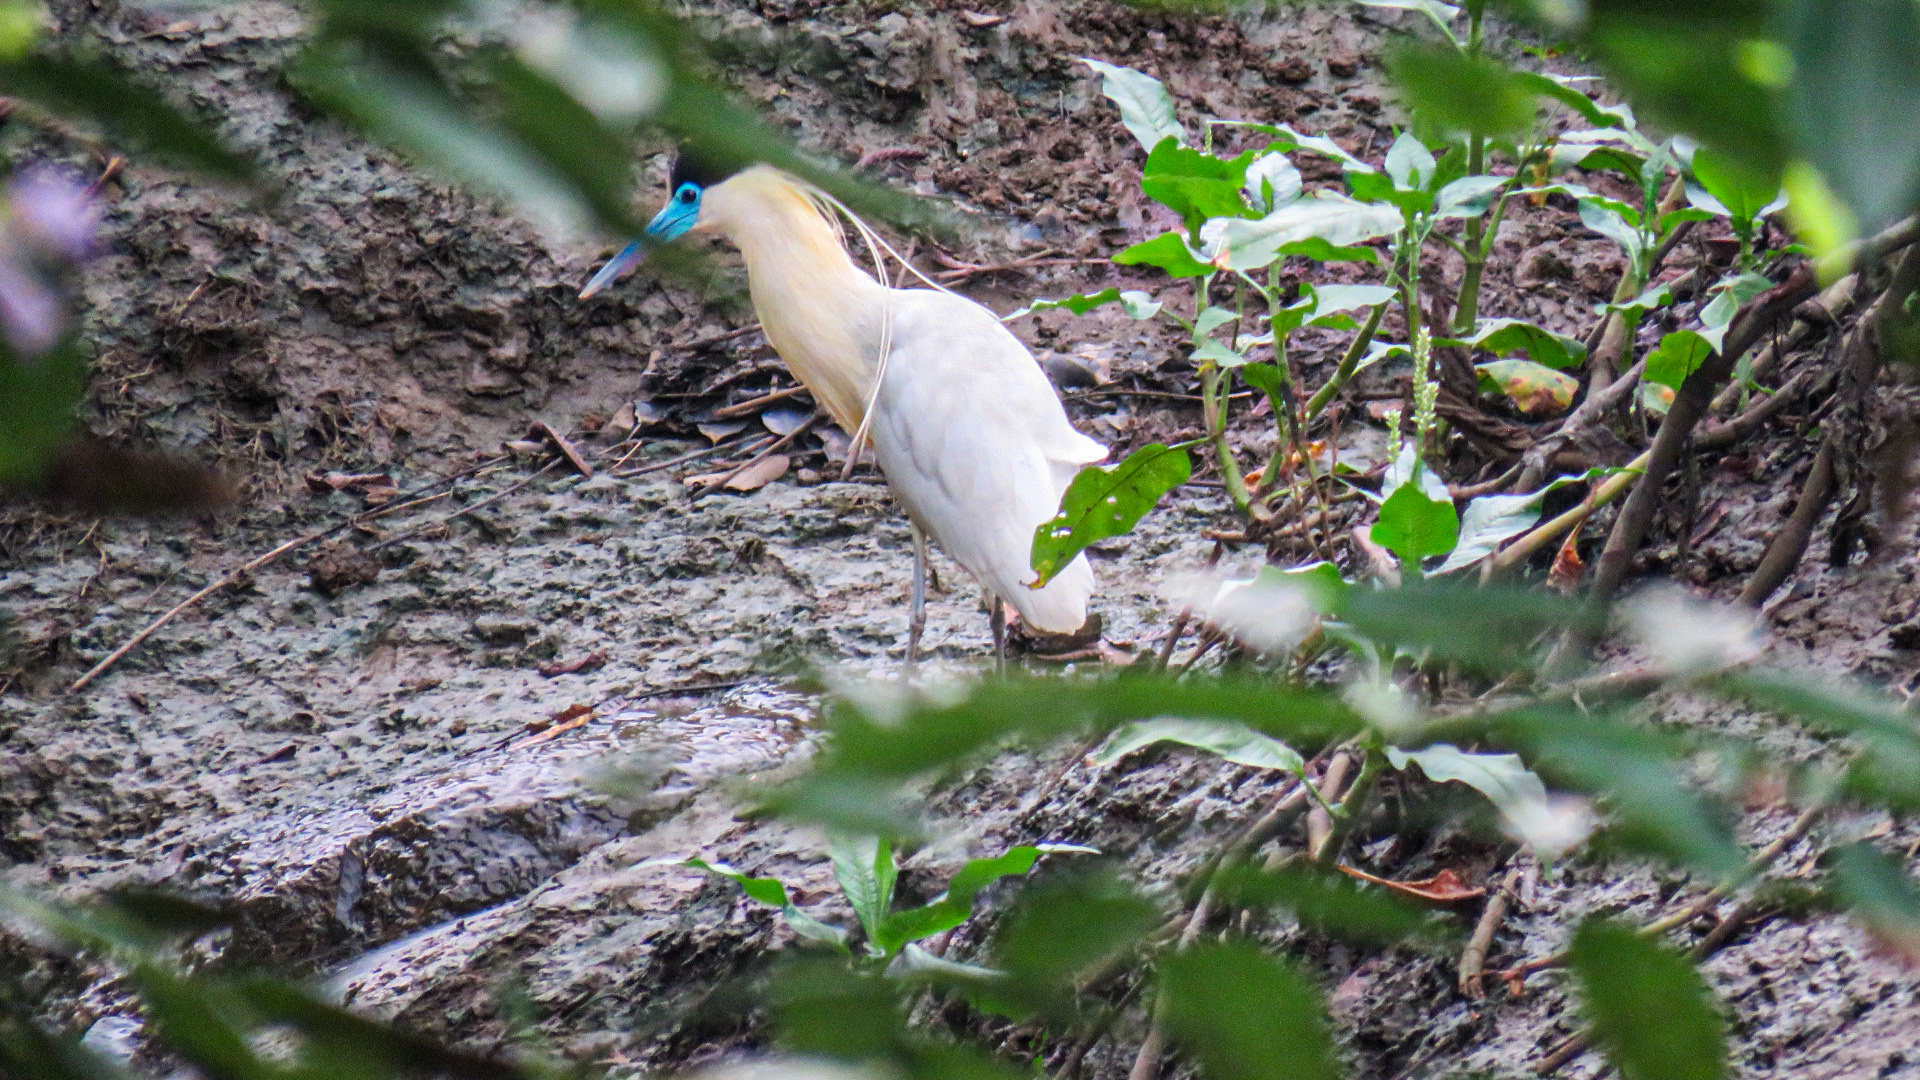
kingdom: Animalia
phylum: Chordata
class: Aves
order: Pelecaniformes
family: Ardeidae
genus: Pilherodius
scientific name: Pilherodius pileatus
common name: Capped heron
